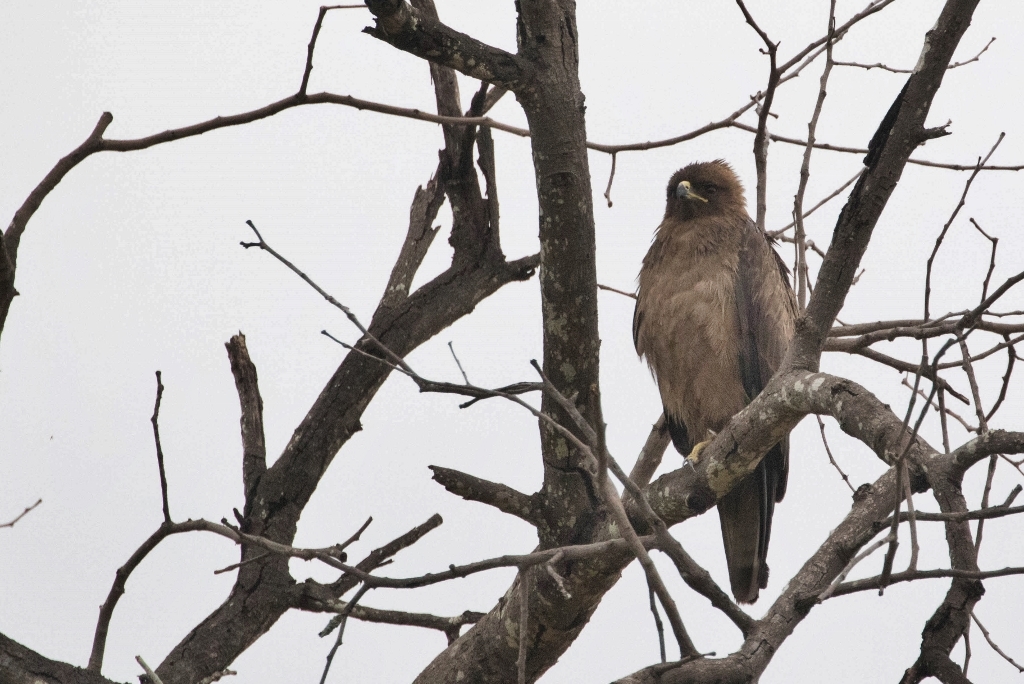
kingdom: Animalia
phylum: Chordata
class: Aves
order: Accipitriformes
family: Accipitridae
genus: Hieraaetus
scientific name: Hieraaetus wahlbergi
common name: Wahlberg's eagle
